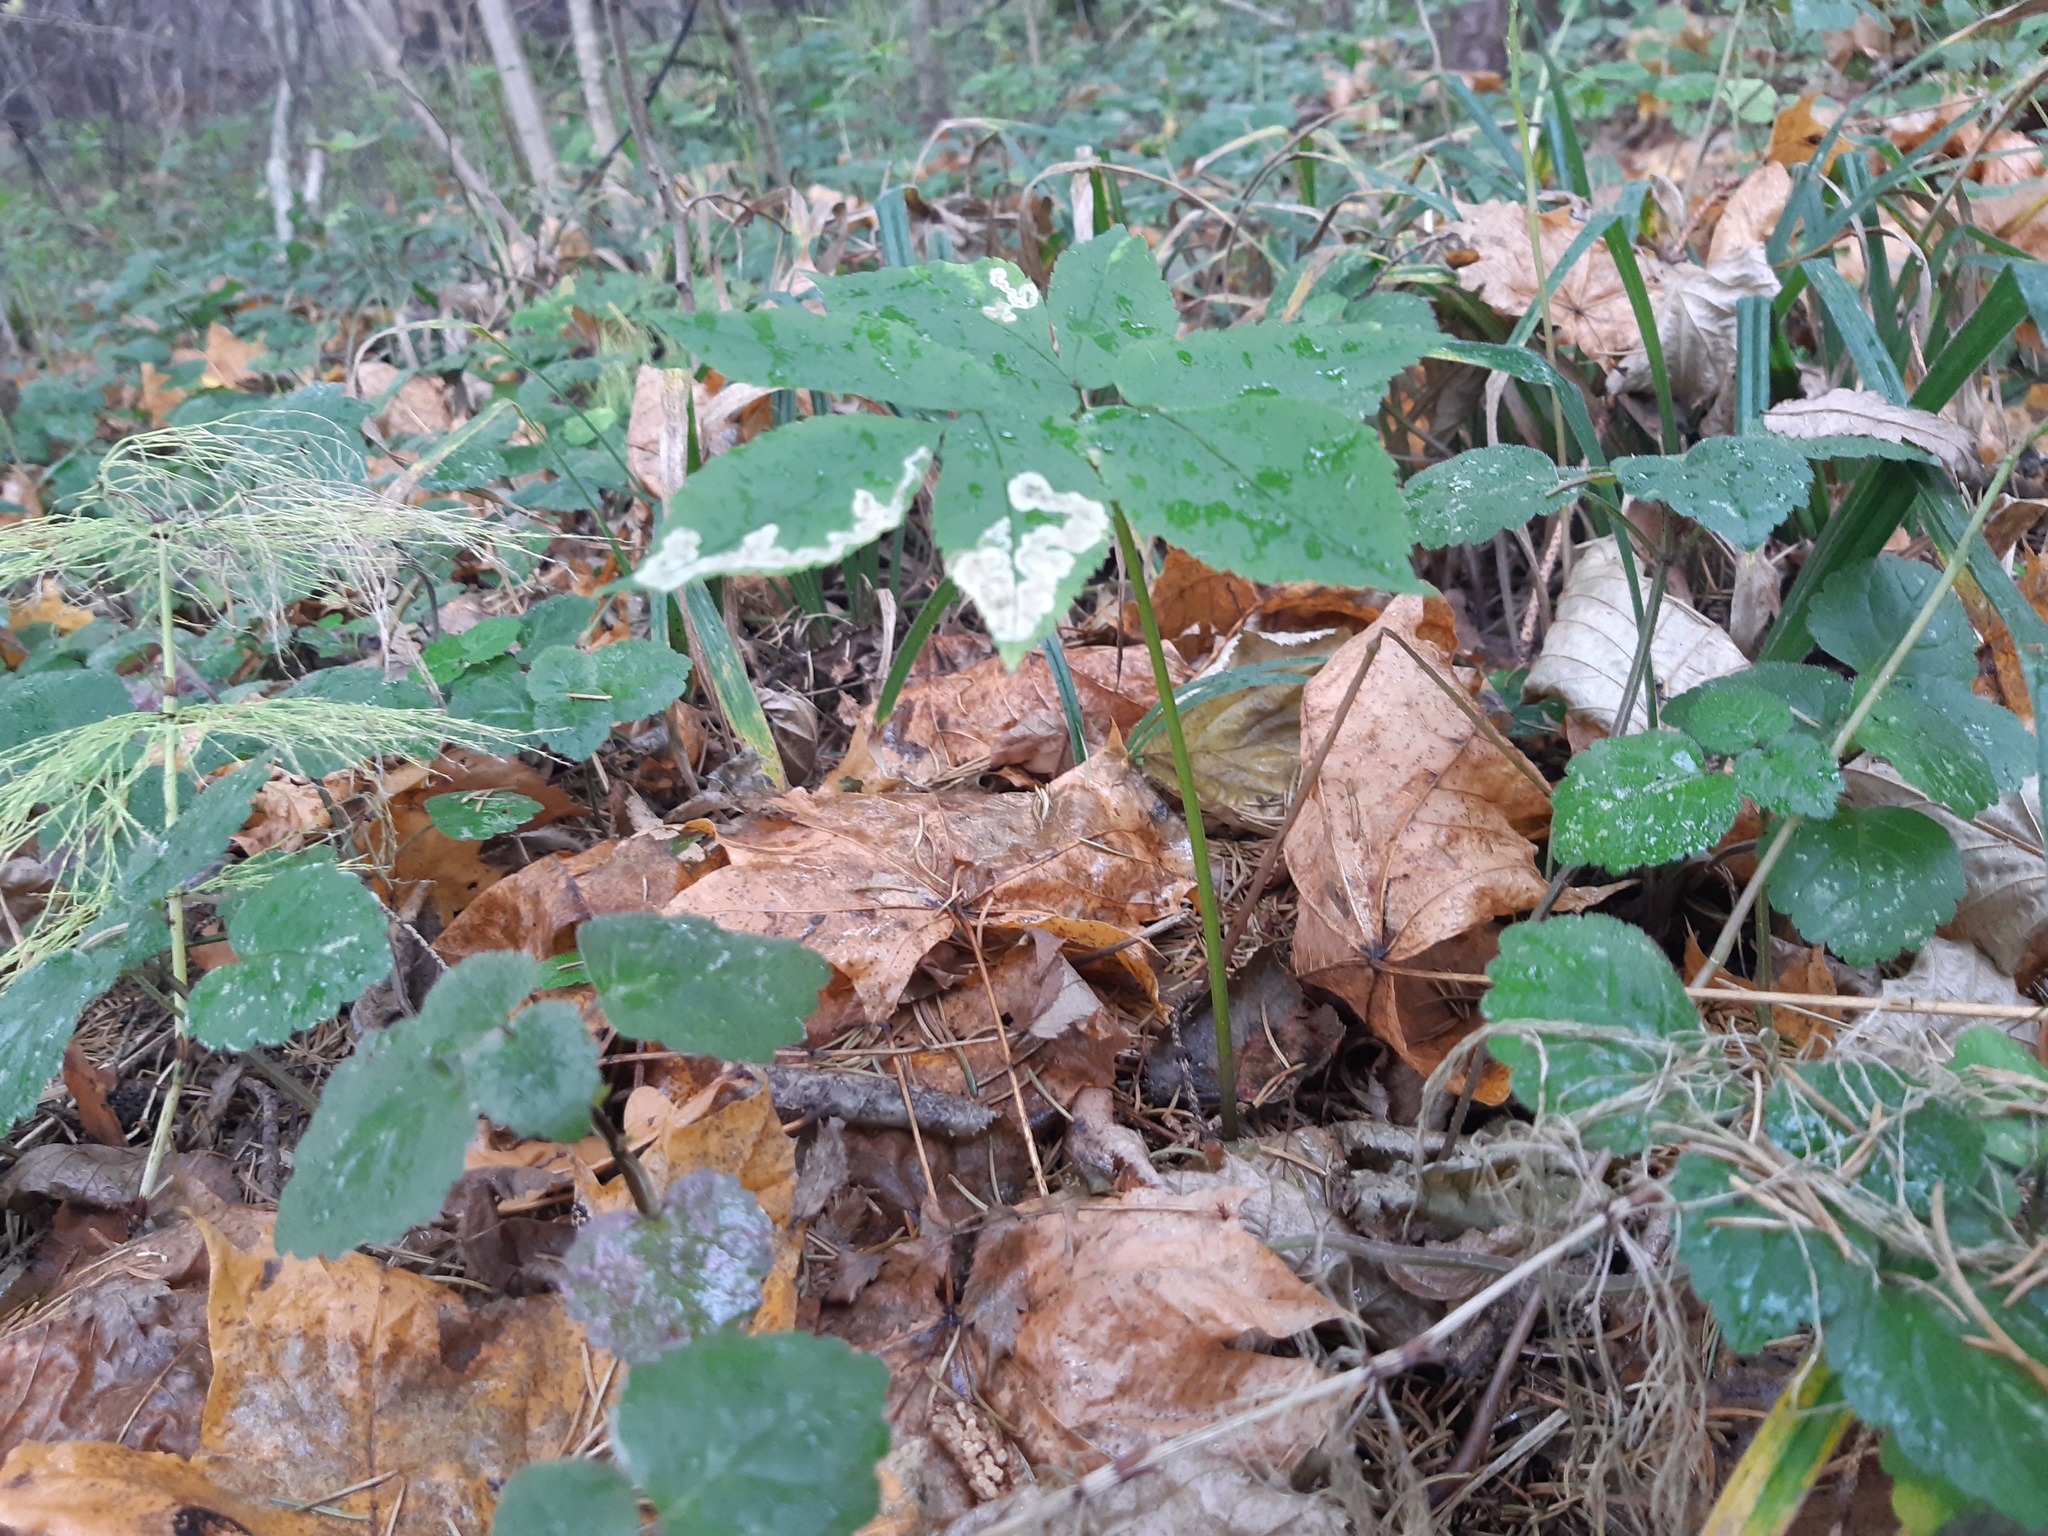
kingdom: Plantae
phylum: Tracheophyta
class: Magnoliopsida
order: Apiales
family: Apiaceae
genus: Aegopodium
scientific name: Aegopodium podagraria
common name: Ground-elder
